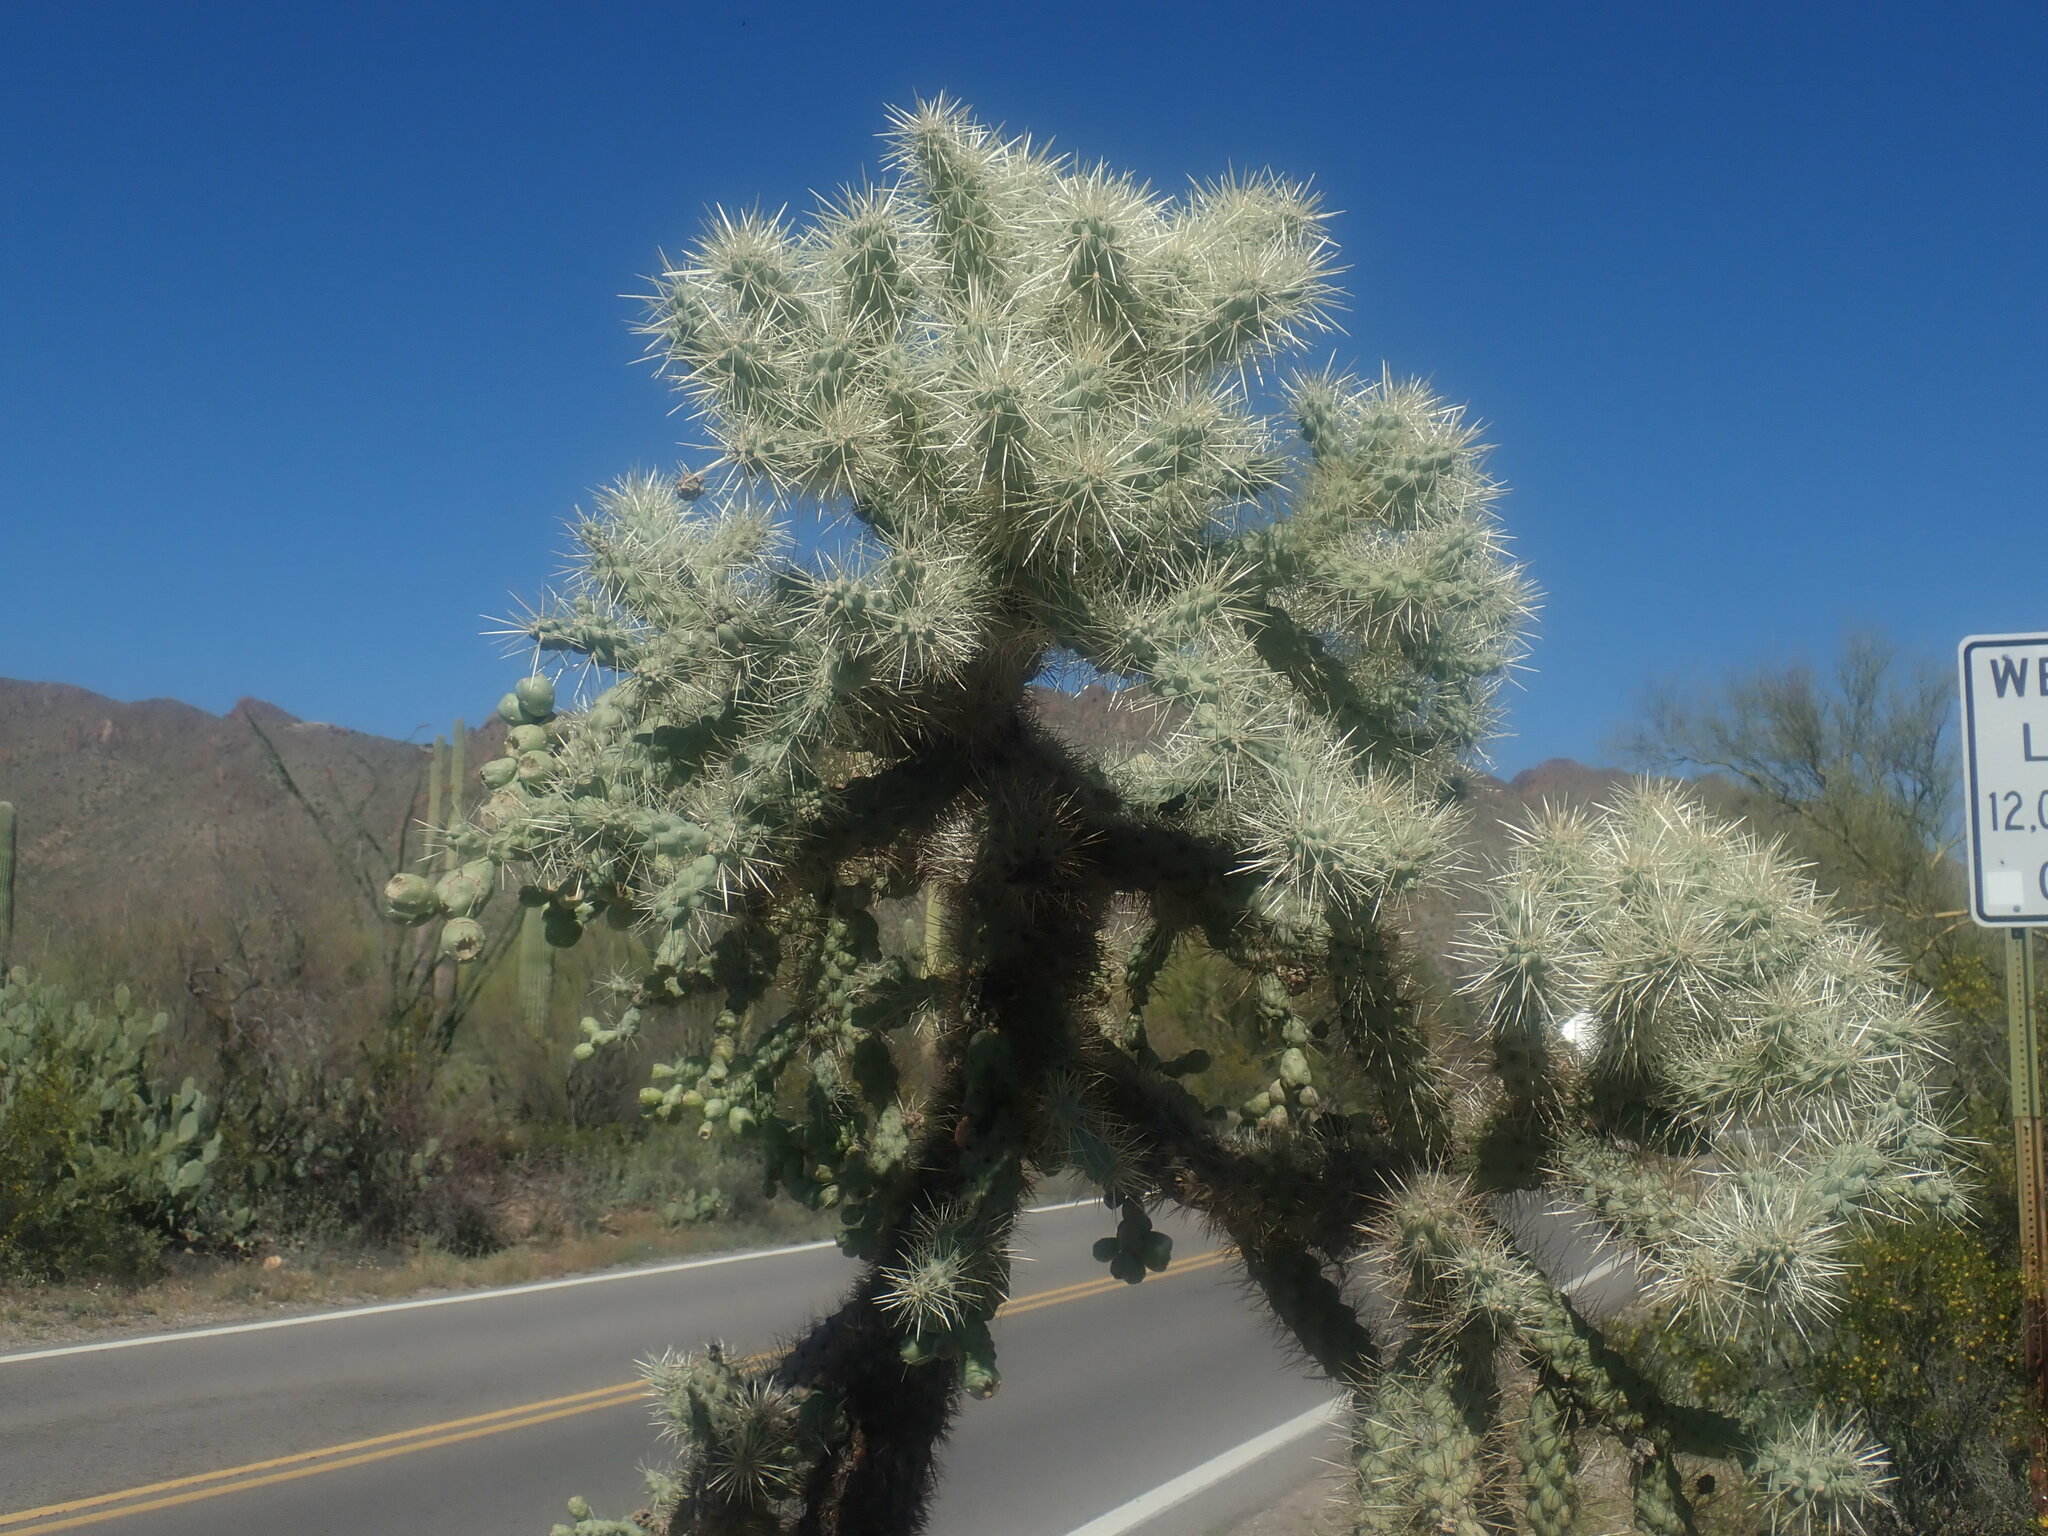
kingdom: Plantae
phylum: Tracheophyta
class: Magnoliopsida
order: Caryophyllales
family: Cactaceae
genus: Cylindropuntia
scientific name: Cylindropuntia fulgida
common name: Jumping cholla
